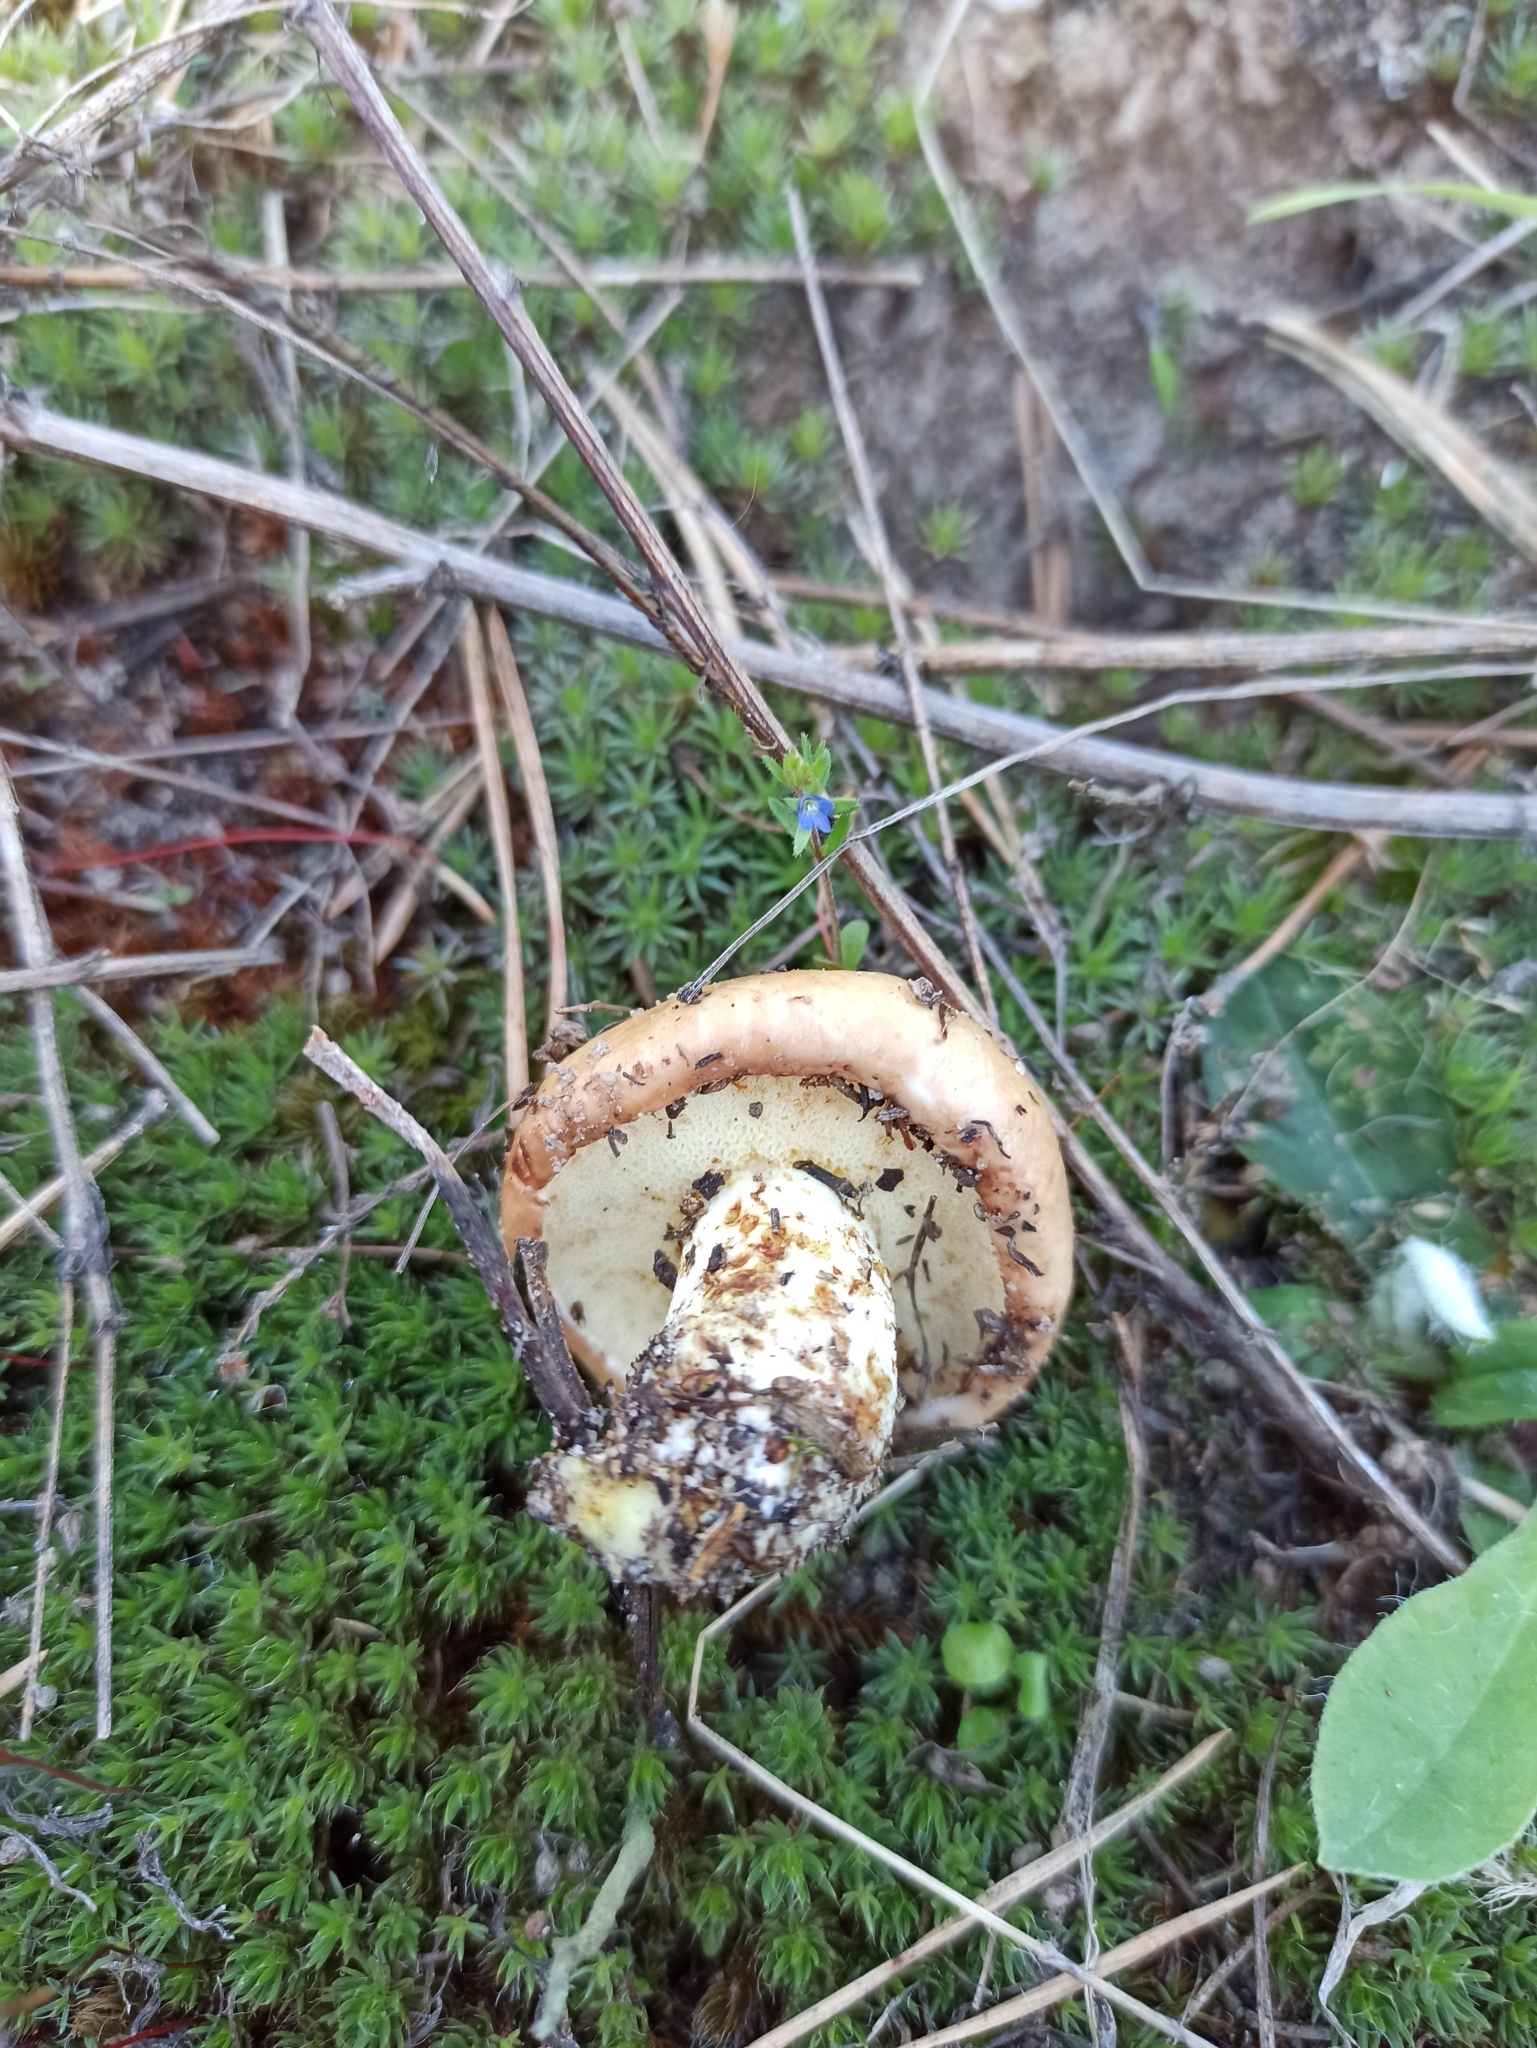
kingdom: Fungi
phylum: Basidiomycota
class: Agaricomycetes
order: Boletales
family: Suillaceae
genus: Suillus
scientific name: Suillus granulatus
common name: Weeping bolete
